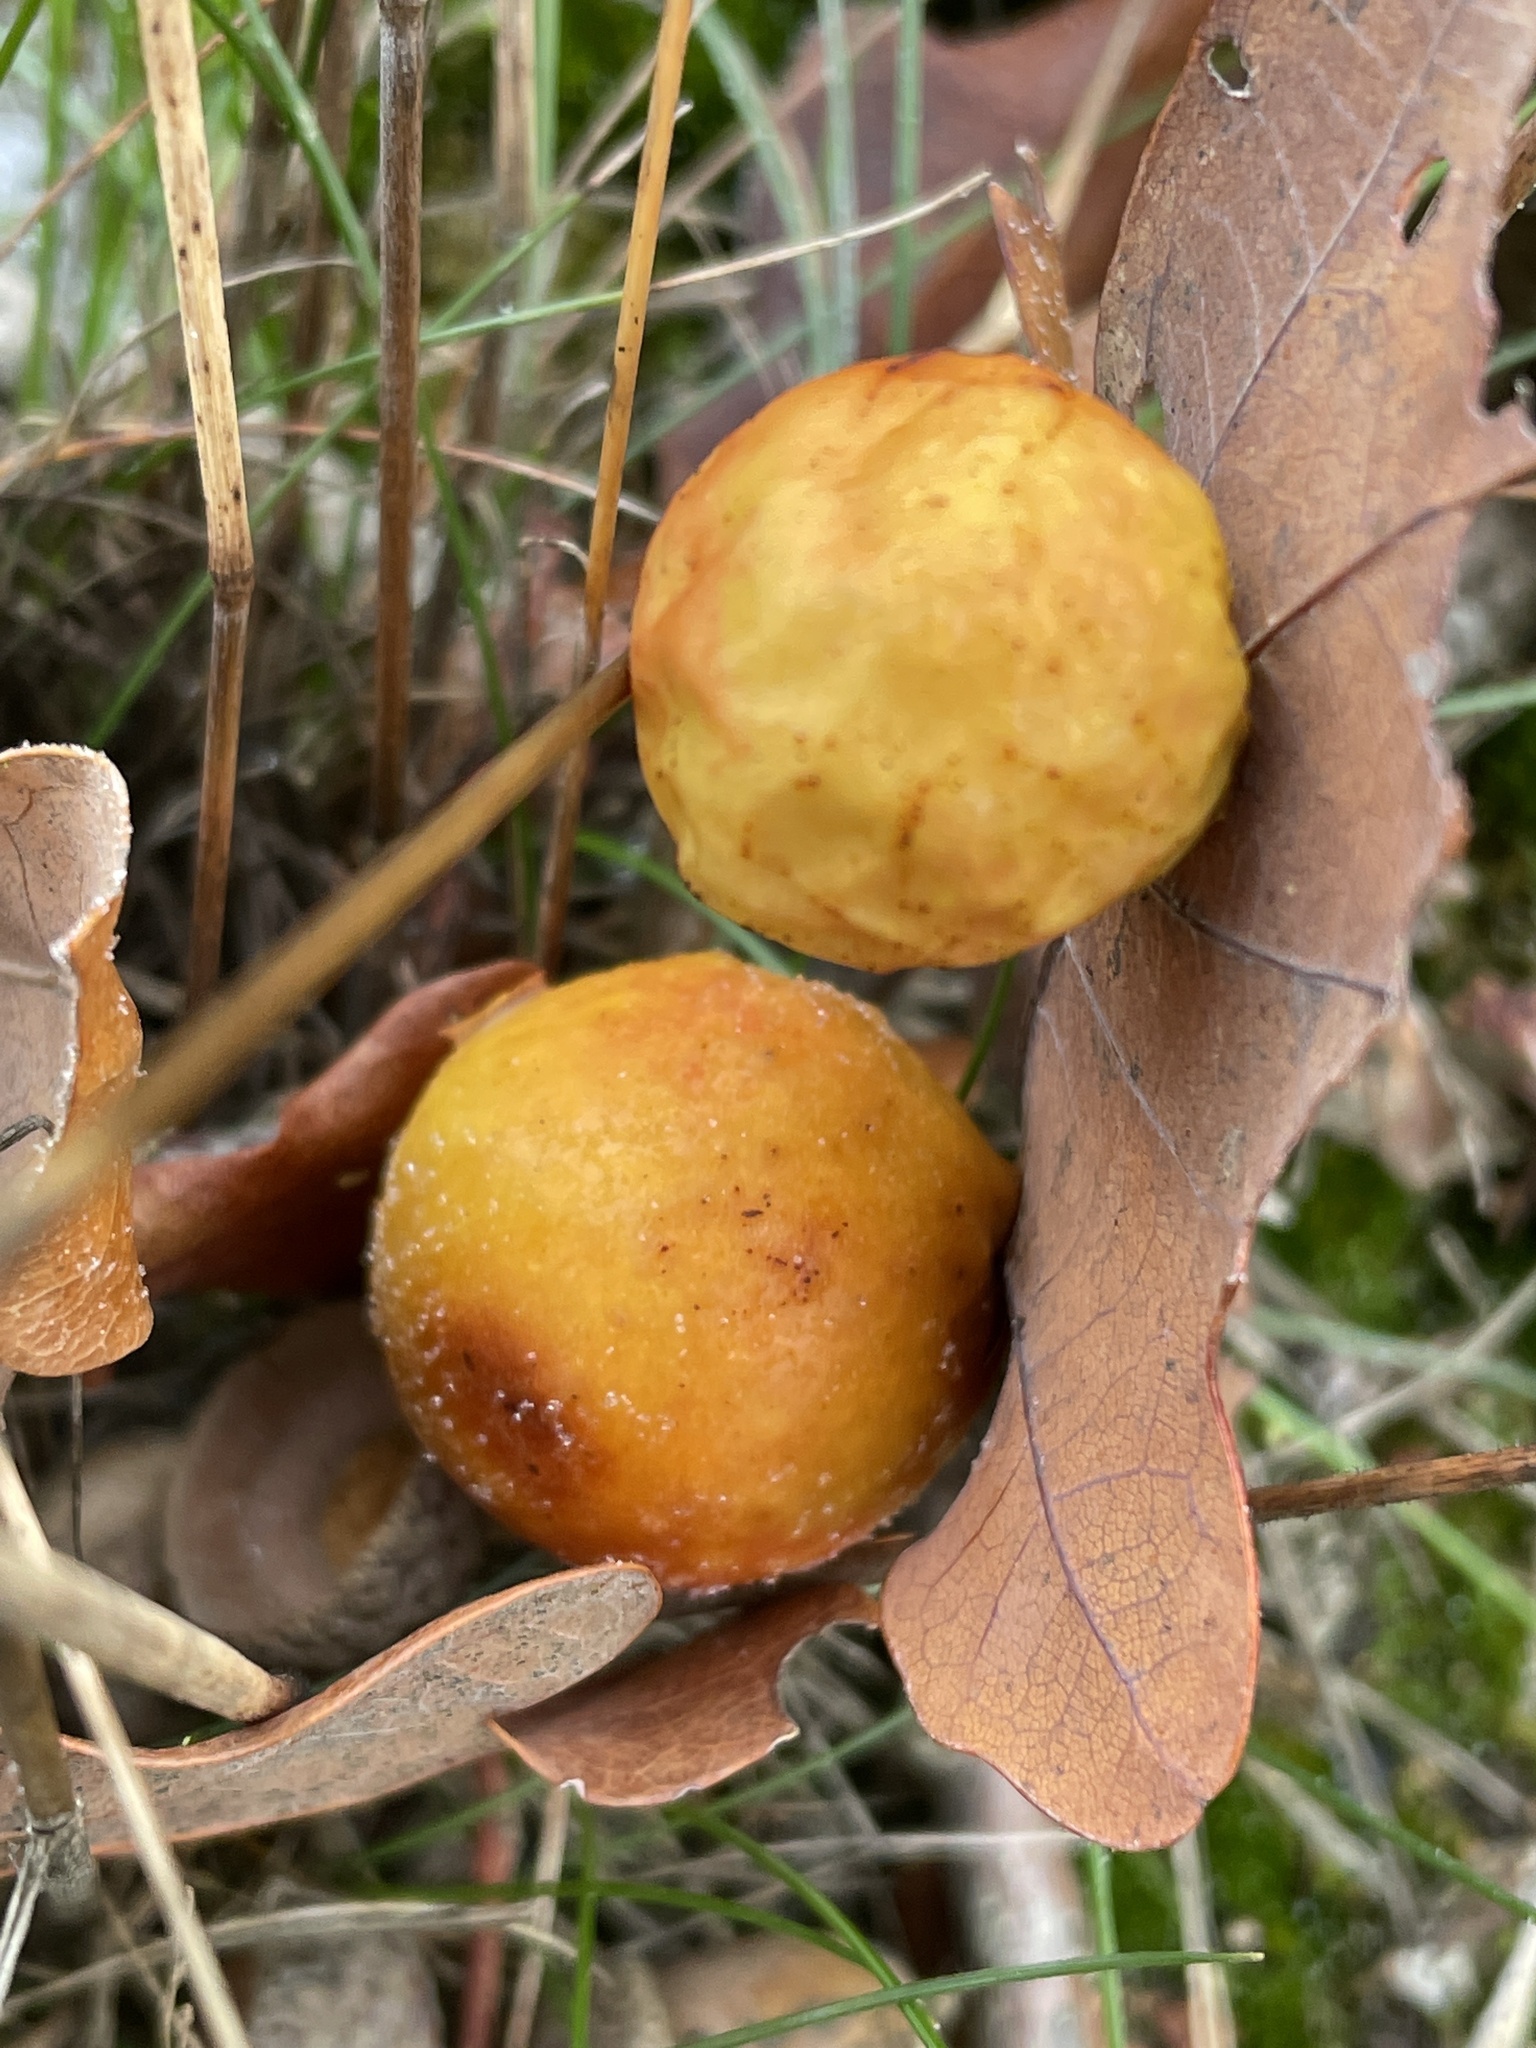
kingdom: Animalia
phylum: Arthropoda
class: Insecta
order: Hymenoptera
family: Cynipidae
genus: Cynips
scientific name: Cynips quercusfolii
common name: Cherry gall
